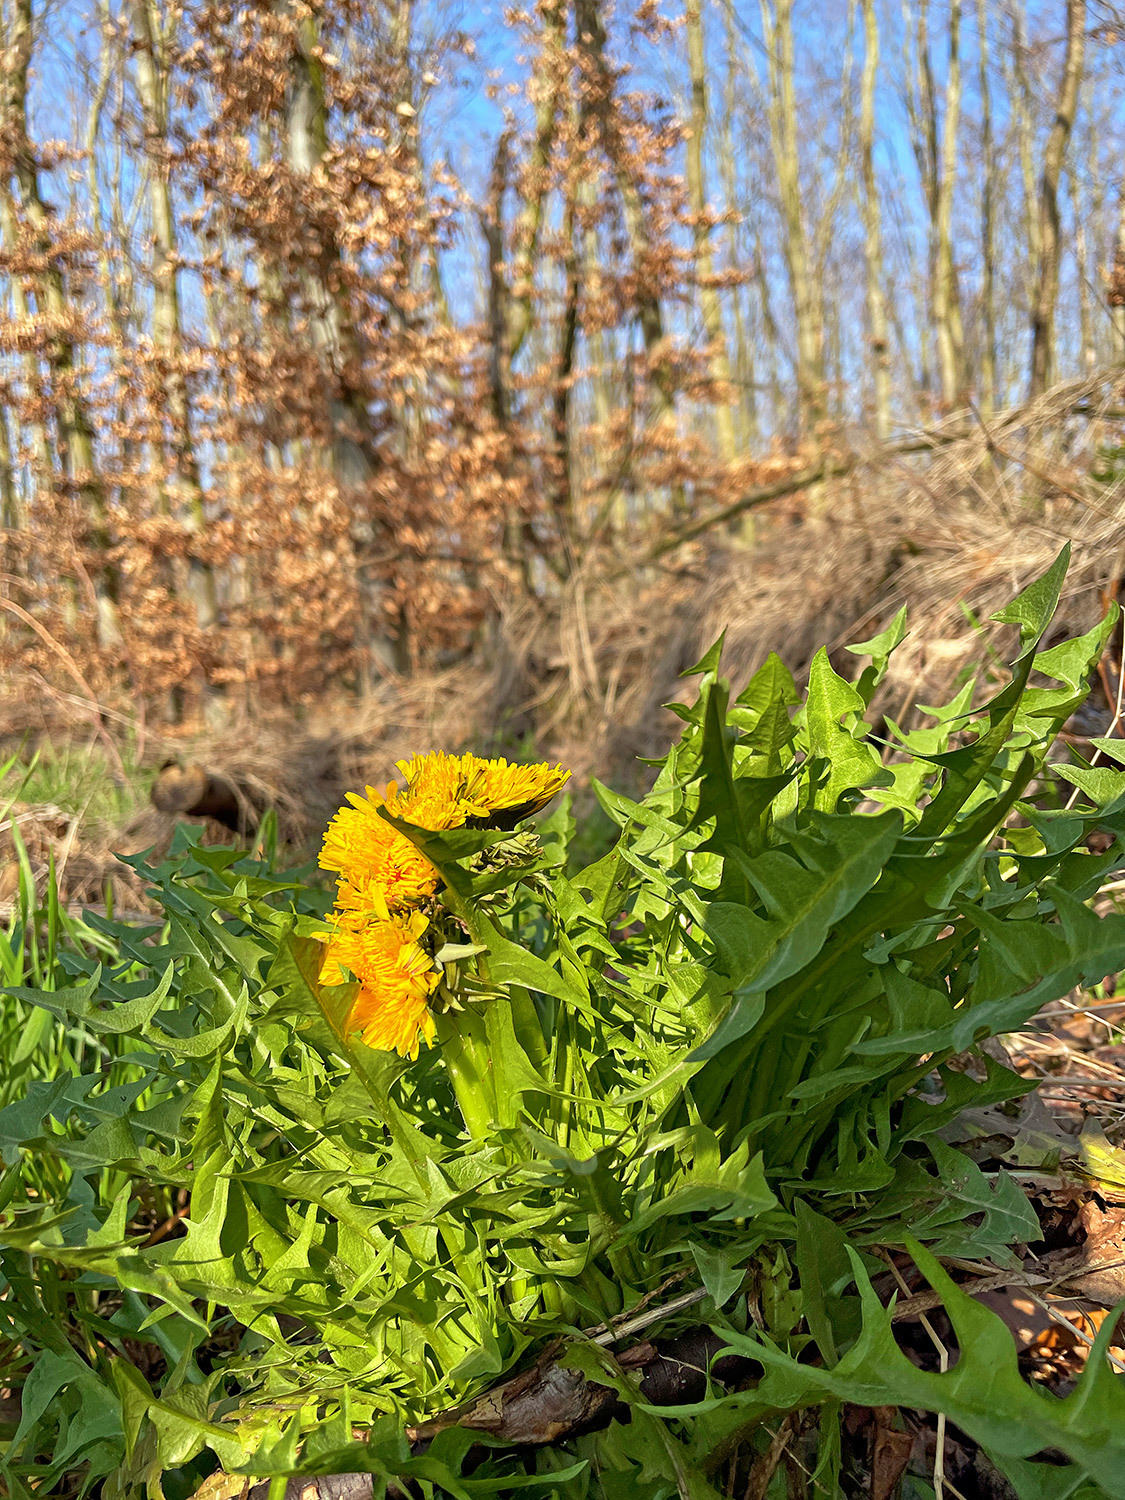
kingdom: Plantae
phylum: Tracheophyta
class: Magnoliopsida
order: Asterales
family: Asteraceae
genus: Taraxacum
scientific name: Taraxacum officinale
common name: Common dandelion
